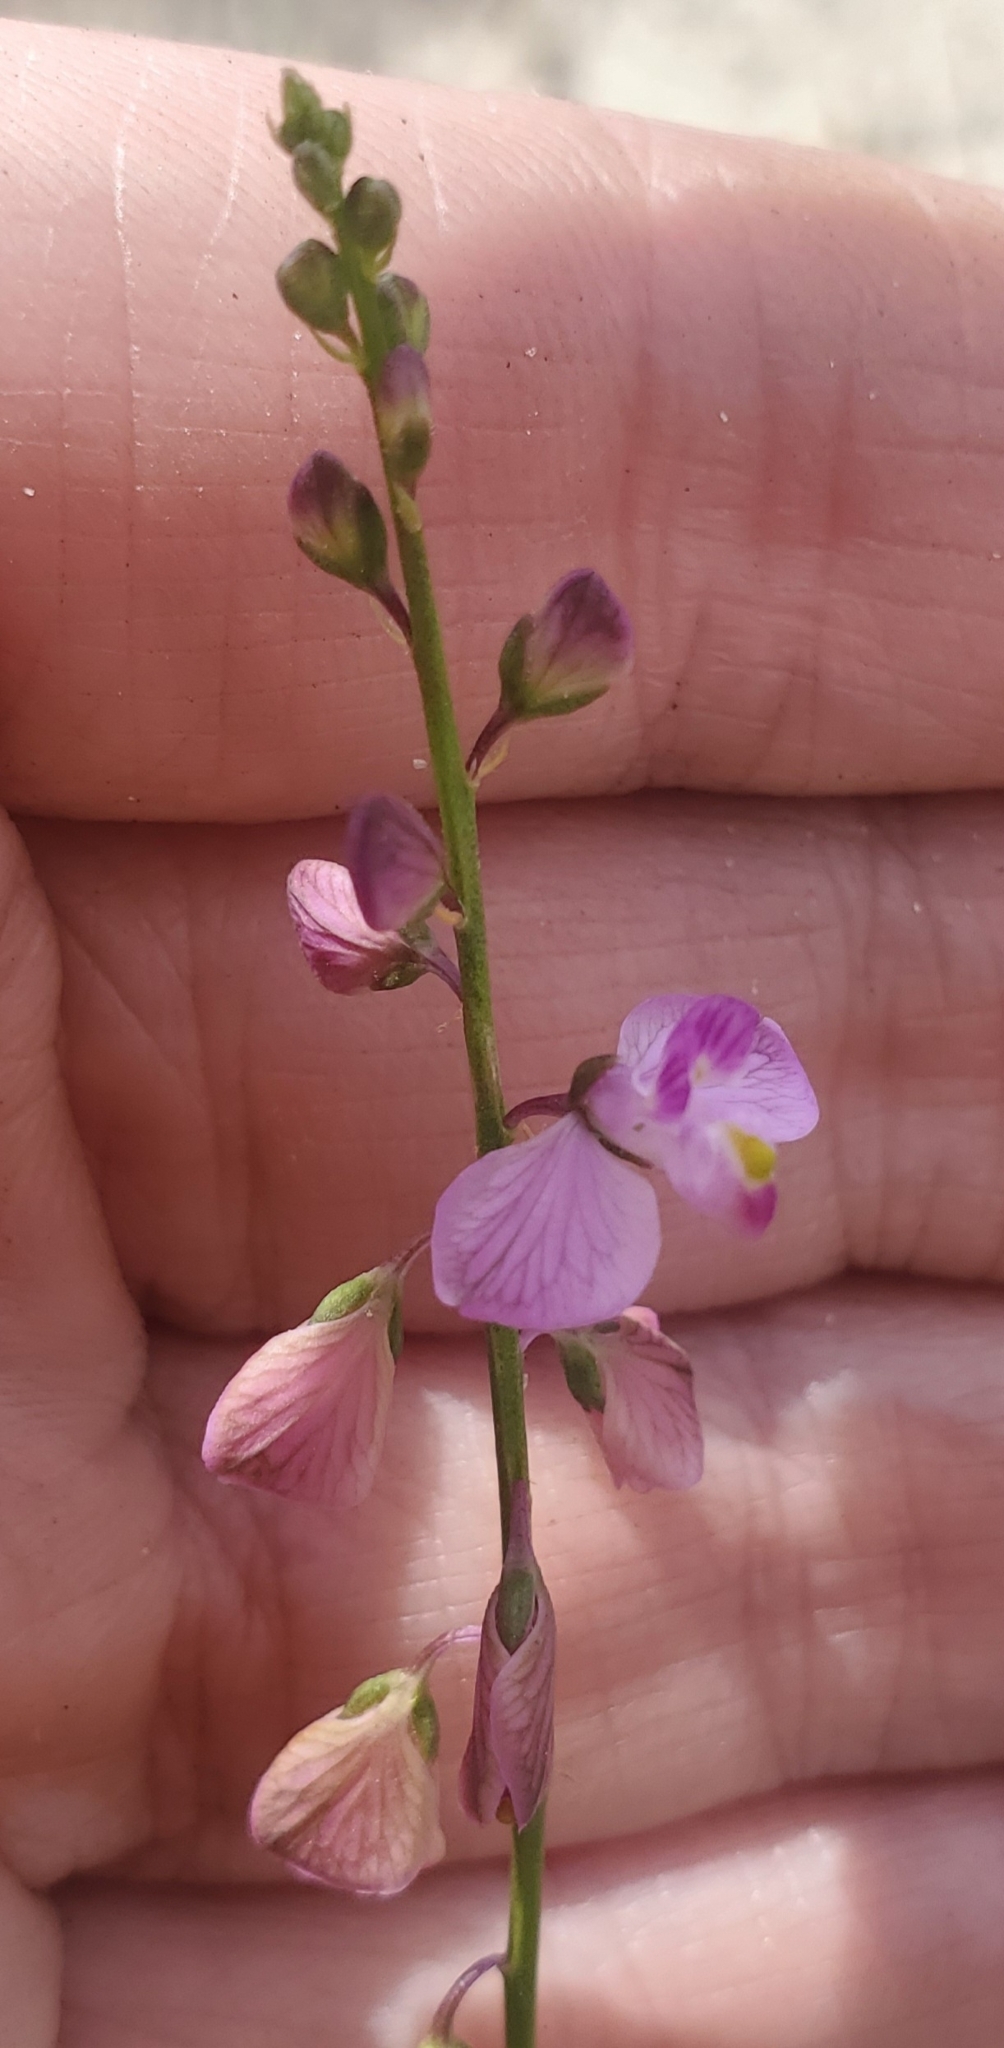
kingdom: Plantae
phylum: Tracheophyta
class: Magnoliopsida
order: Fabales
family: Polygalaceae
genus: Asemeia
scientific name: Asemeia grandiflora
